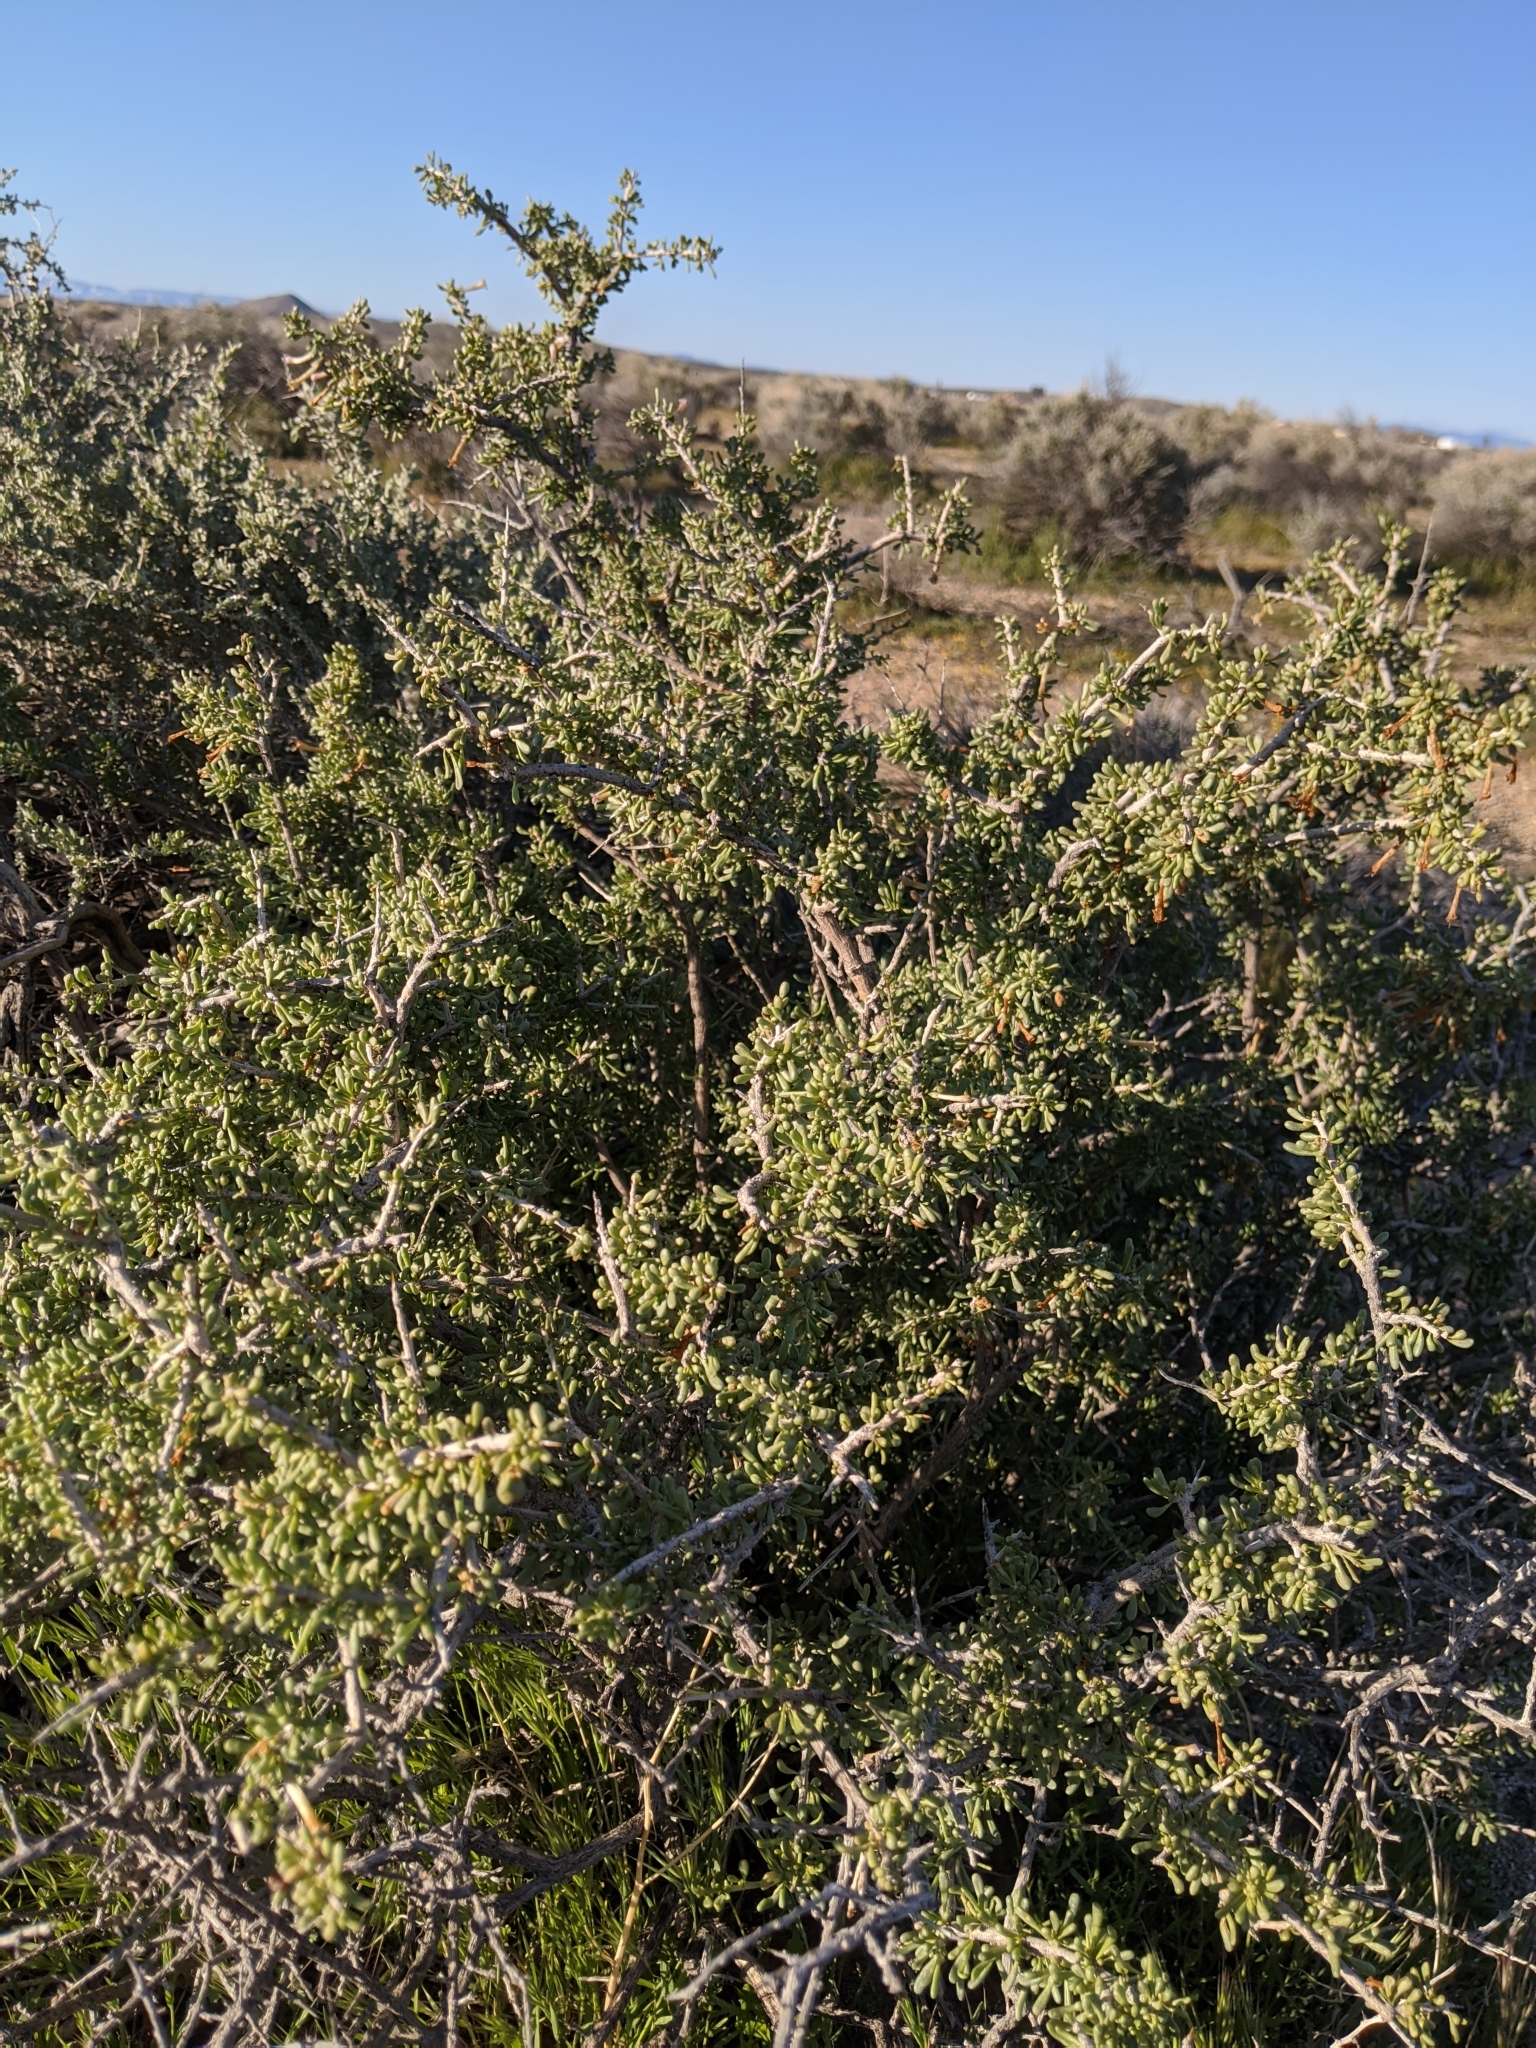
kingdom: Plantae
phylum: Tracheophyta
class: Magnoliopsida
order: Solanales
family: Solanaceae
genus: Lycium
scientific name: Lycium andersonii
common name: Water-jacket
